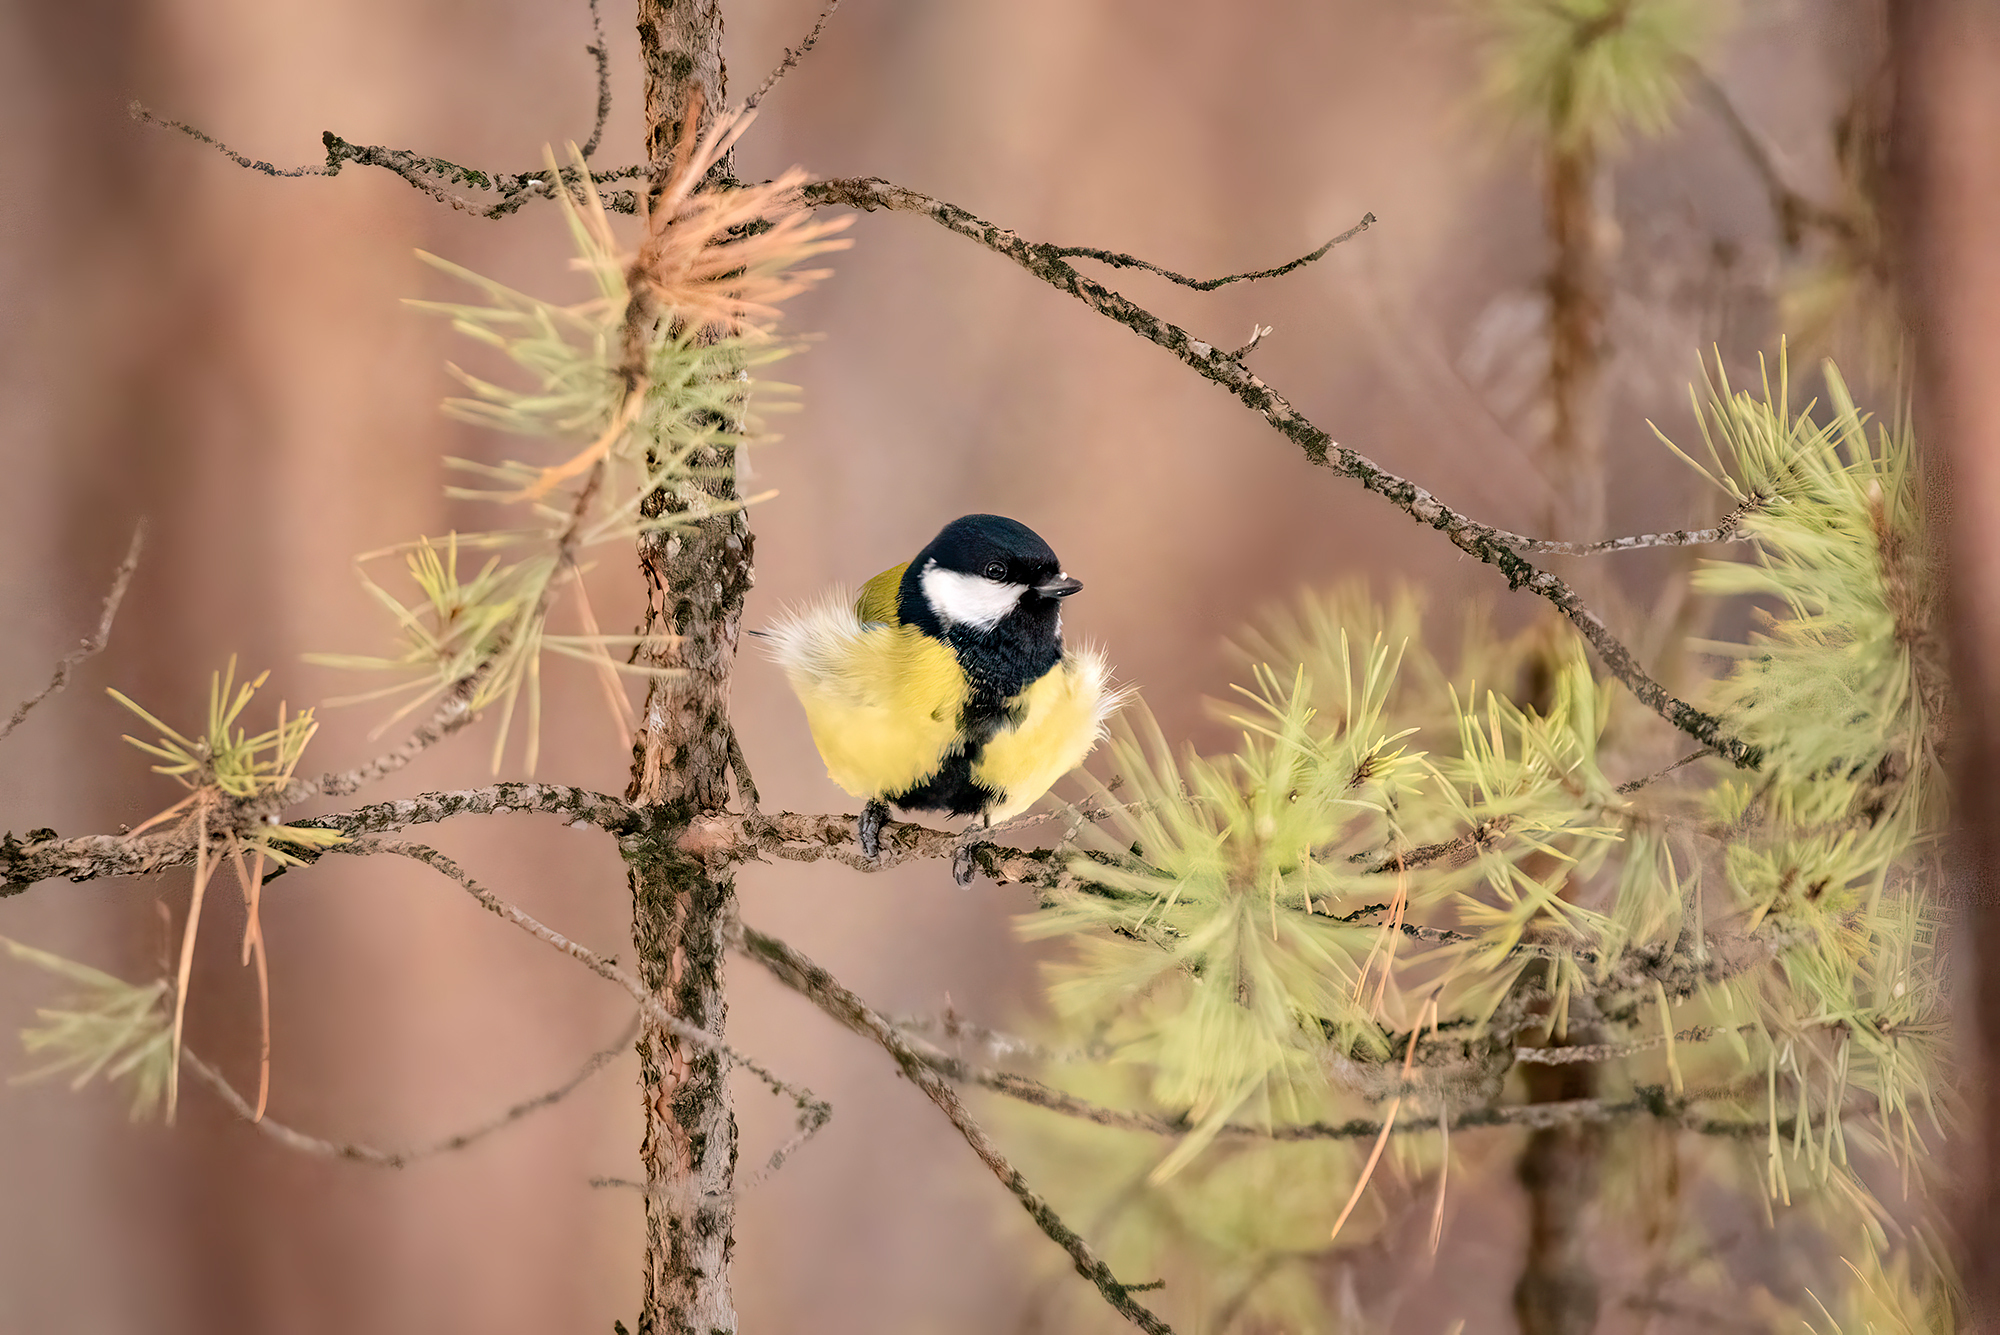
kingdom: Animalia
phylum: Chordata
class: Aves
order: Passeriformes
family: Paridae
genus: Parus
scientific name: Parus major
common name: Great tit
